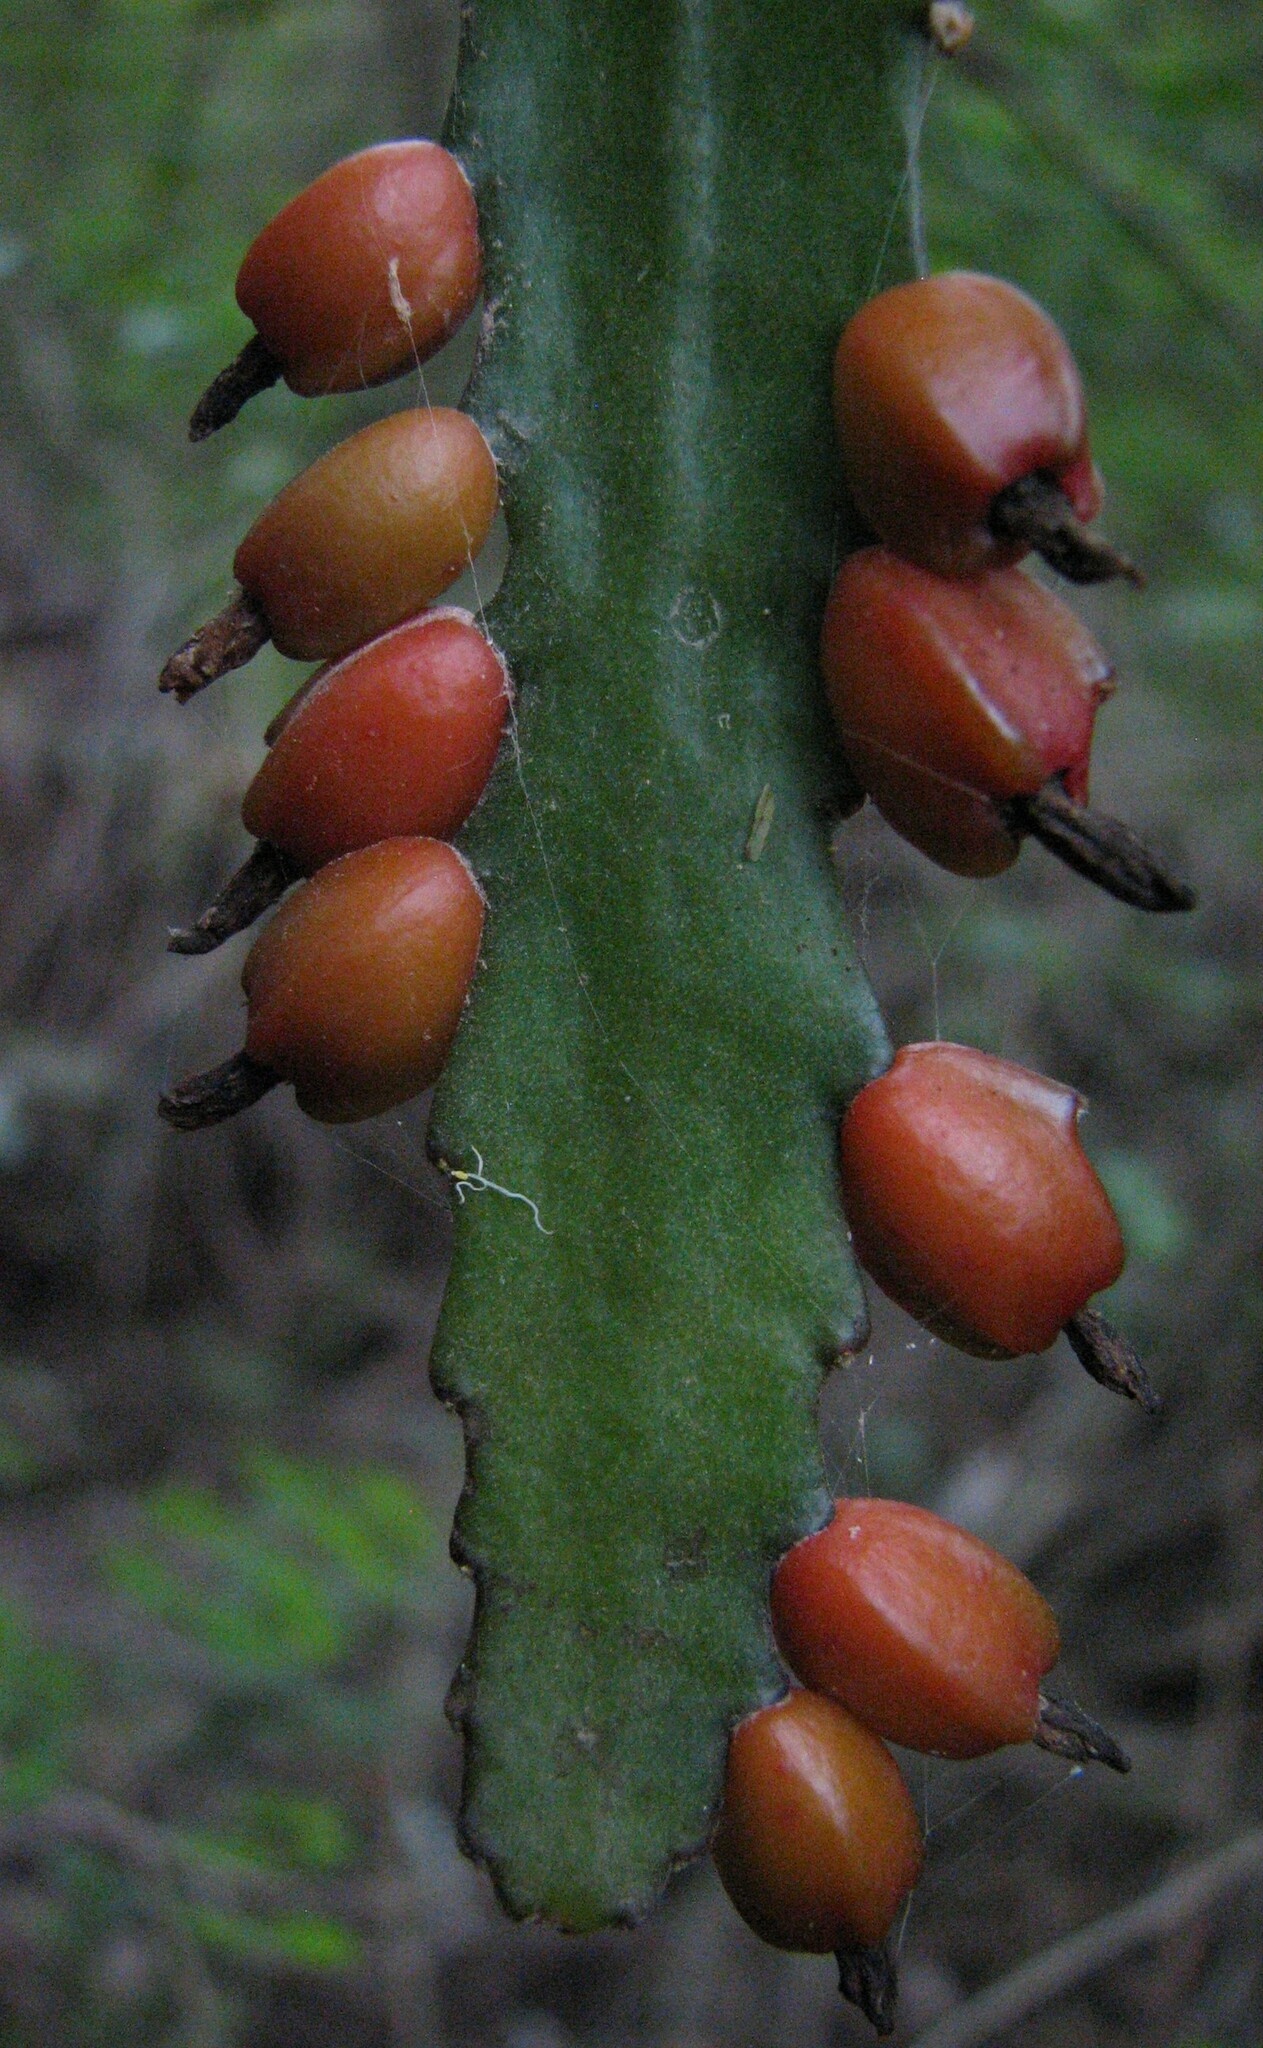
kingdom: Plantae
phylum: Tracheophyta
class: Magnoliopsida
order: Caryophyllales
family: Cactaceae
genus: Pfeiffera
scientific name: Pfeiffera monacantha
